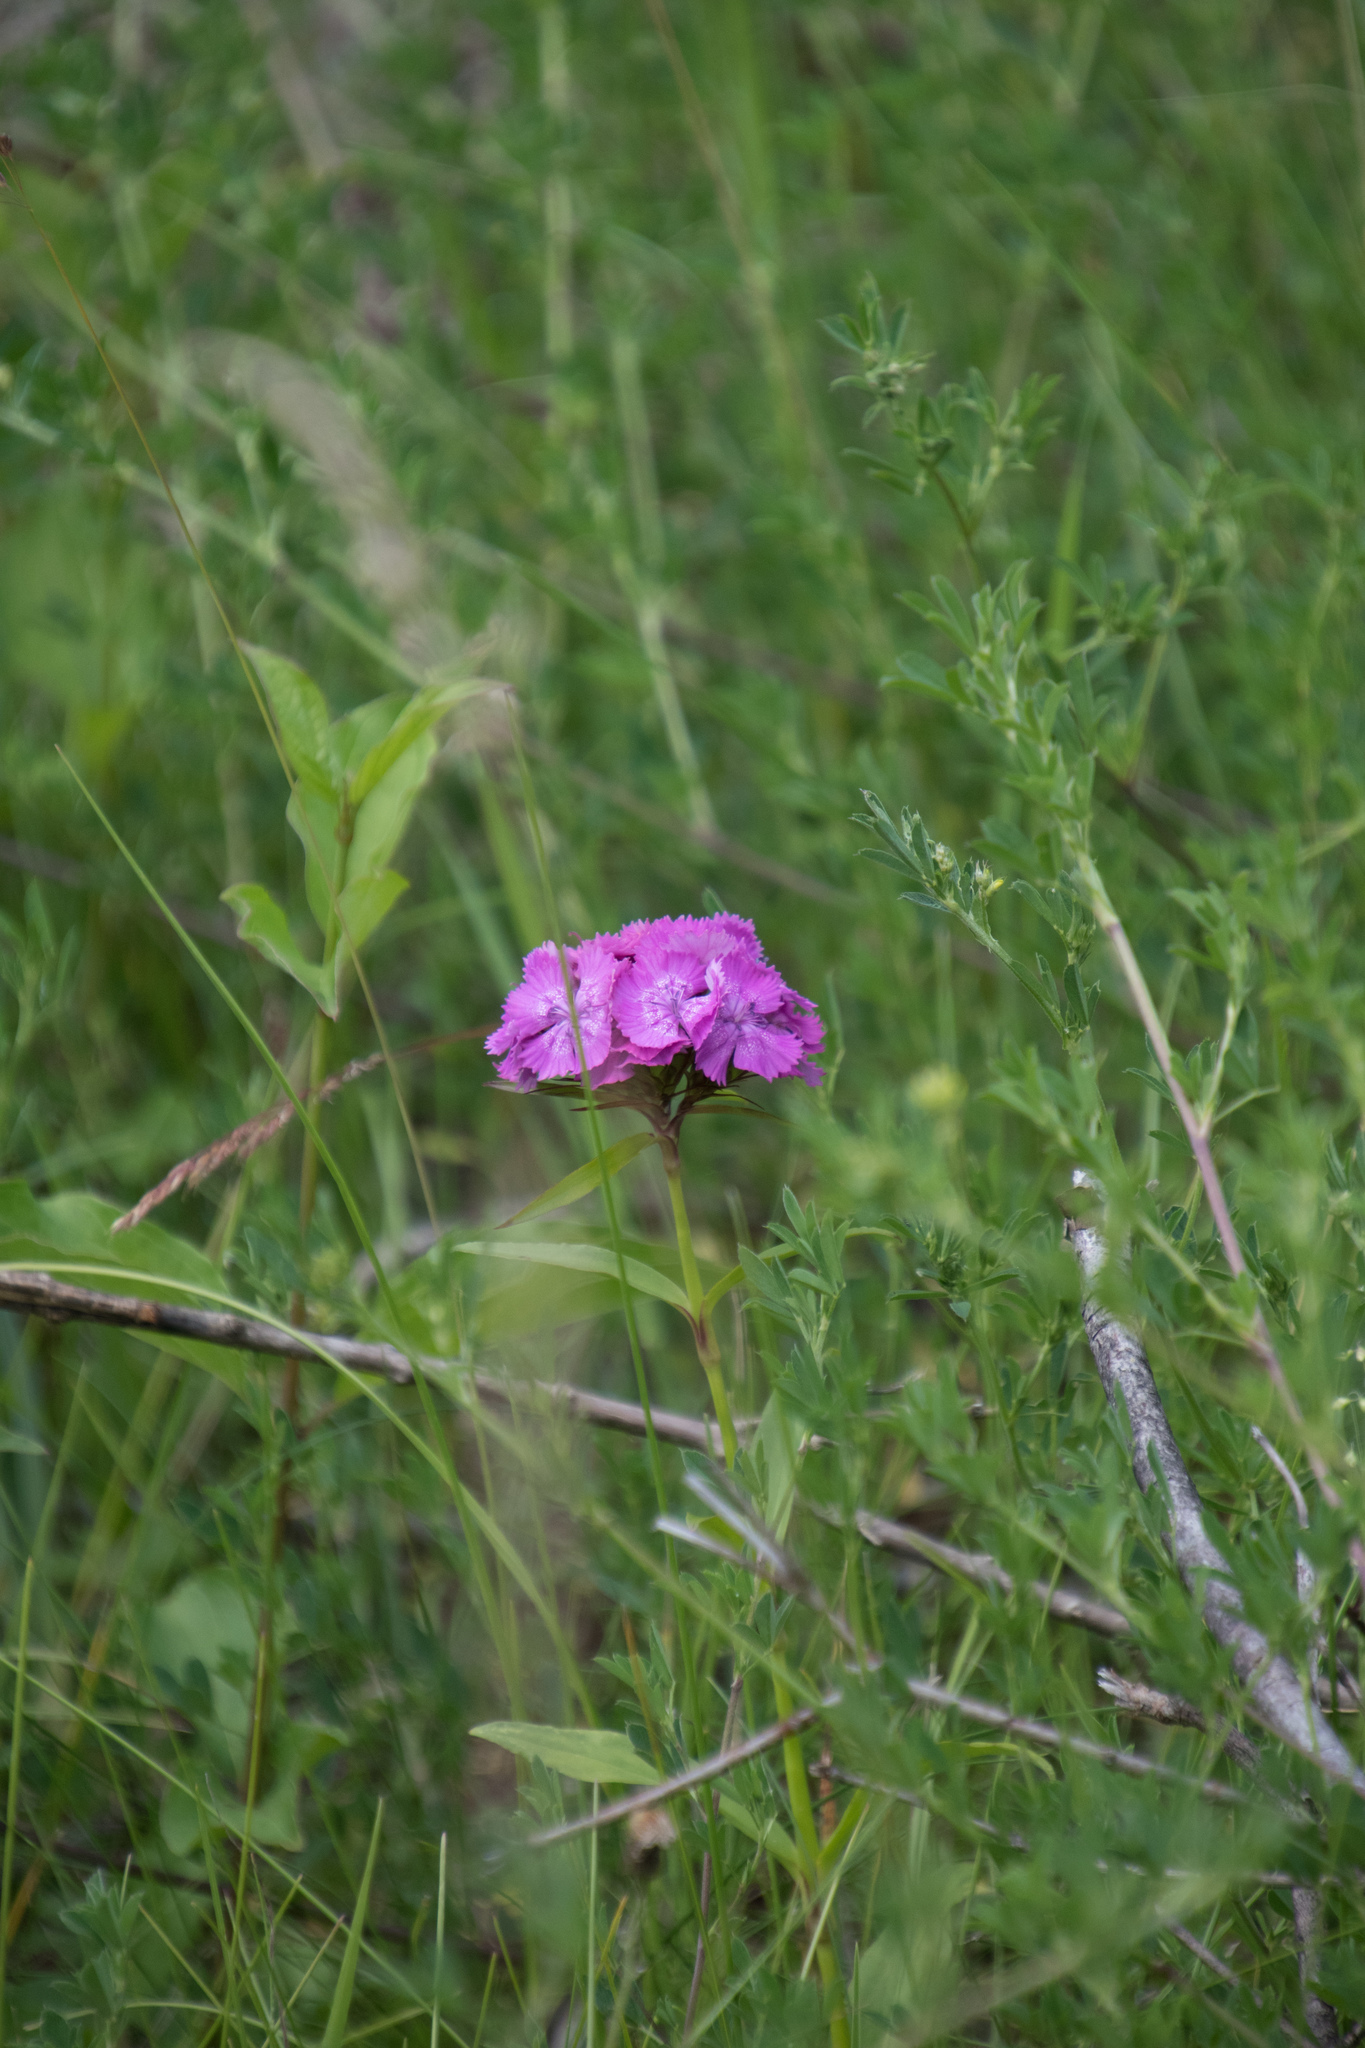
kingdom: Plantae
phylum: Tracheophyta
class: Magnoliopsida
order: Caryophyllales
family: Caryophyllaceae
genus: Dianthus
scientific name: Dianthus barbatus
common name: Sweet-william
